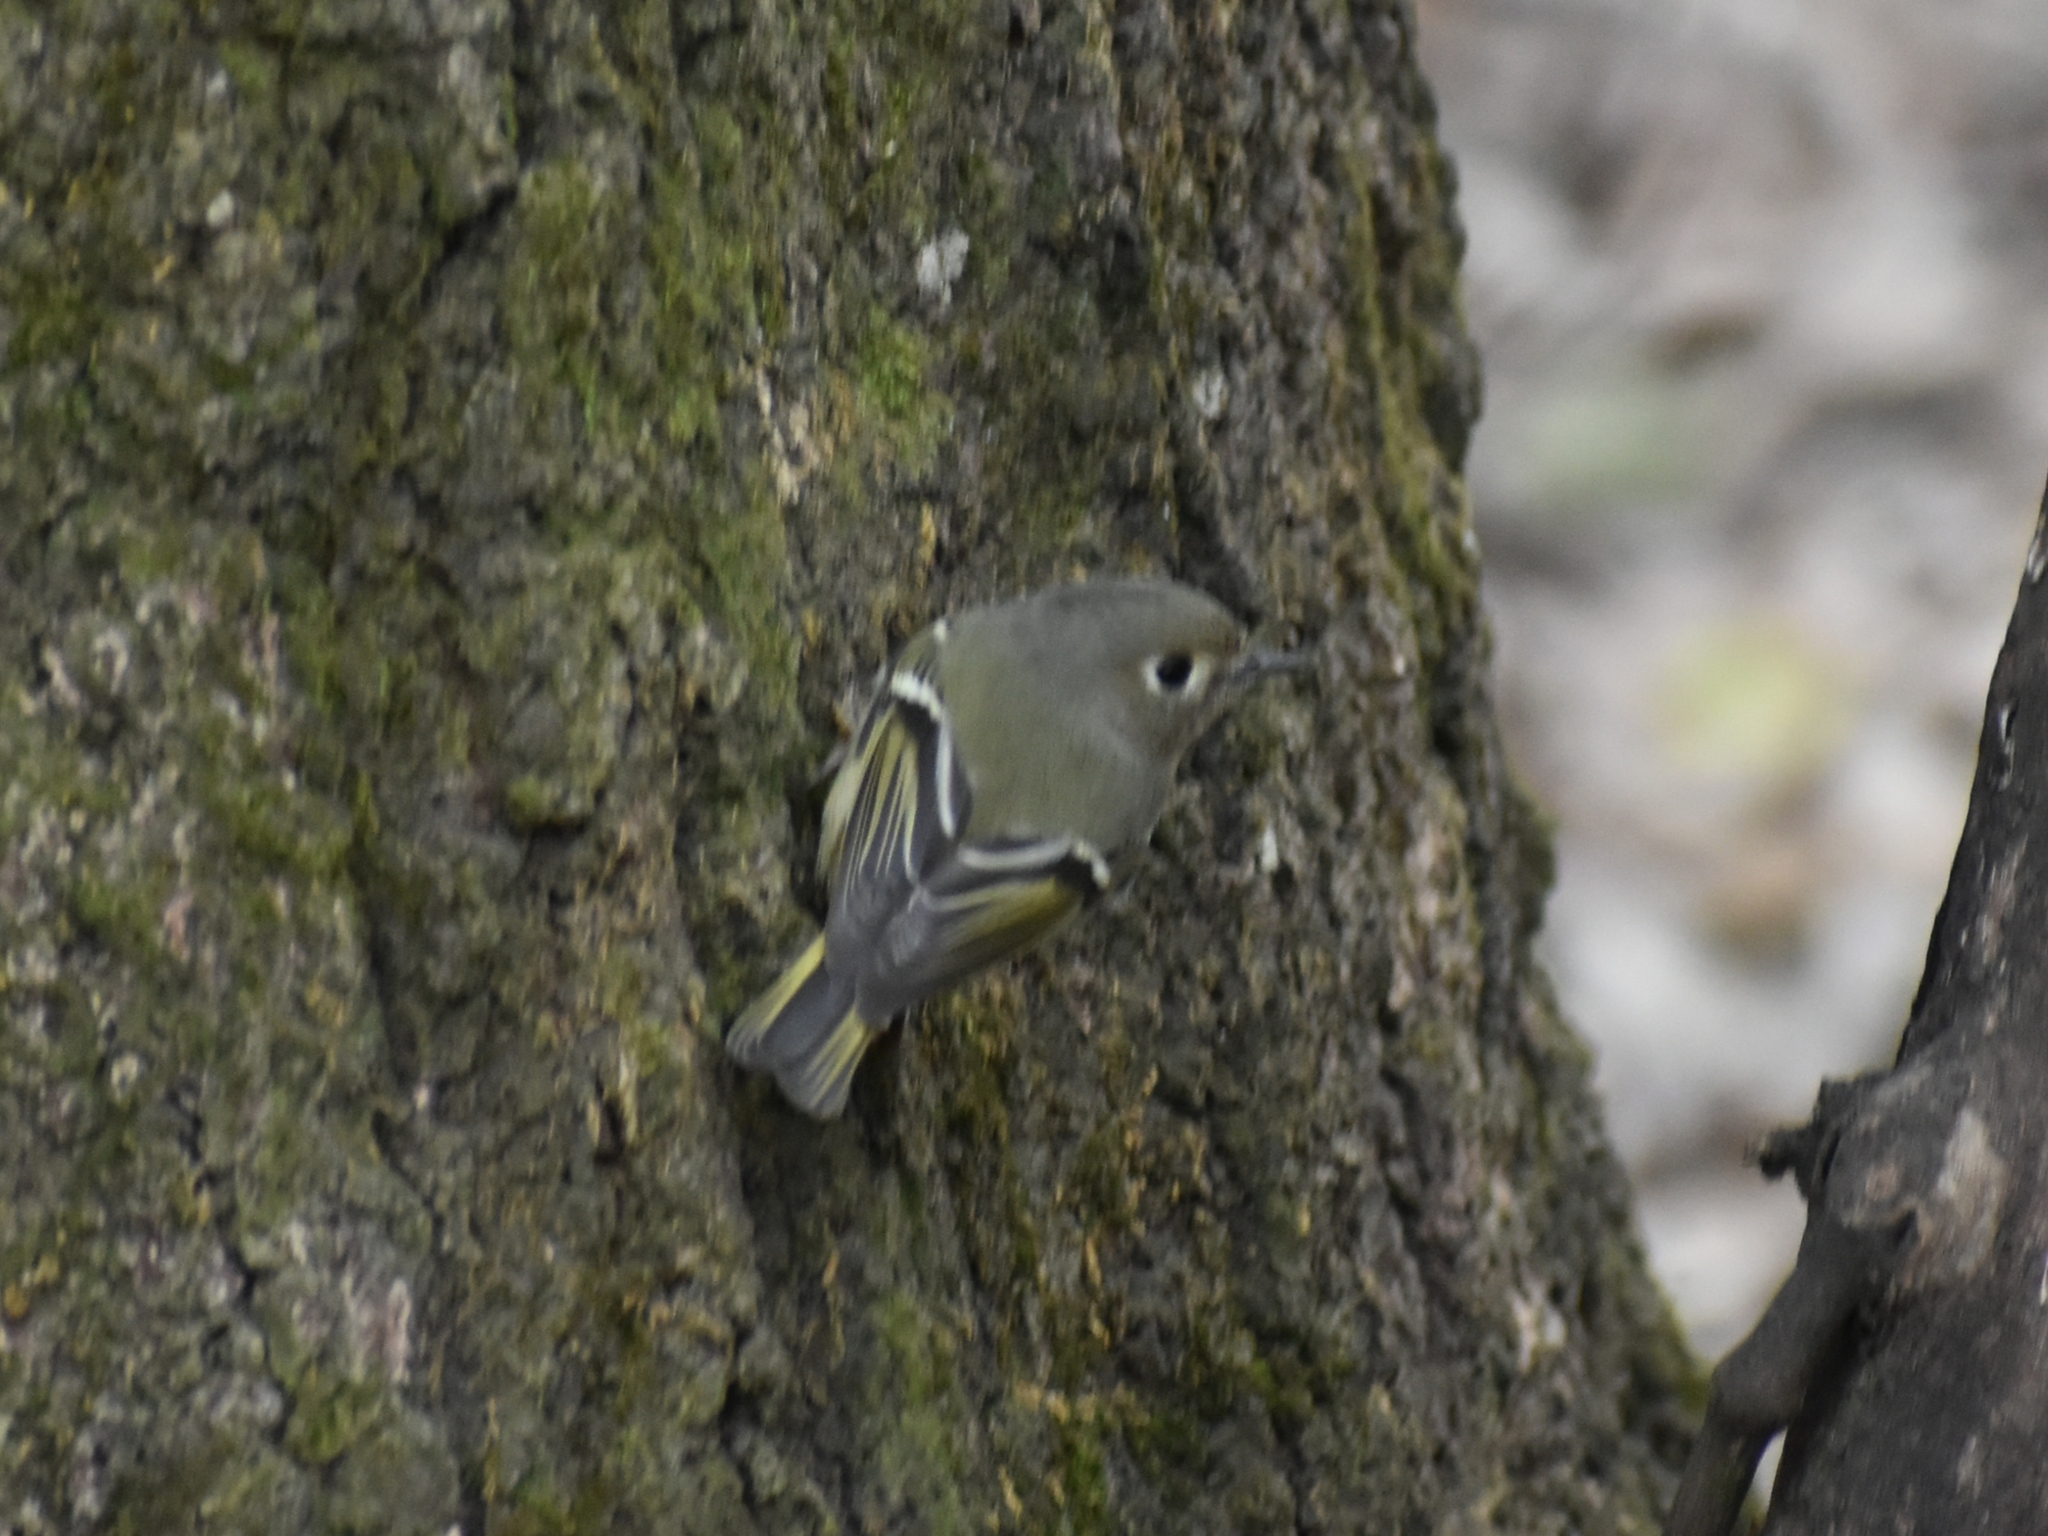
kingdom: Animalia
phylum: Chordata
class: Aves
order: Passeriformes
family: Regulidae
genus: Regulus
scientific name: Regulus calendula
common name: Ruby-crowned kinglet
